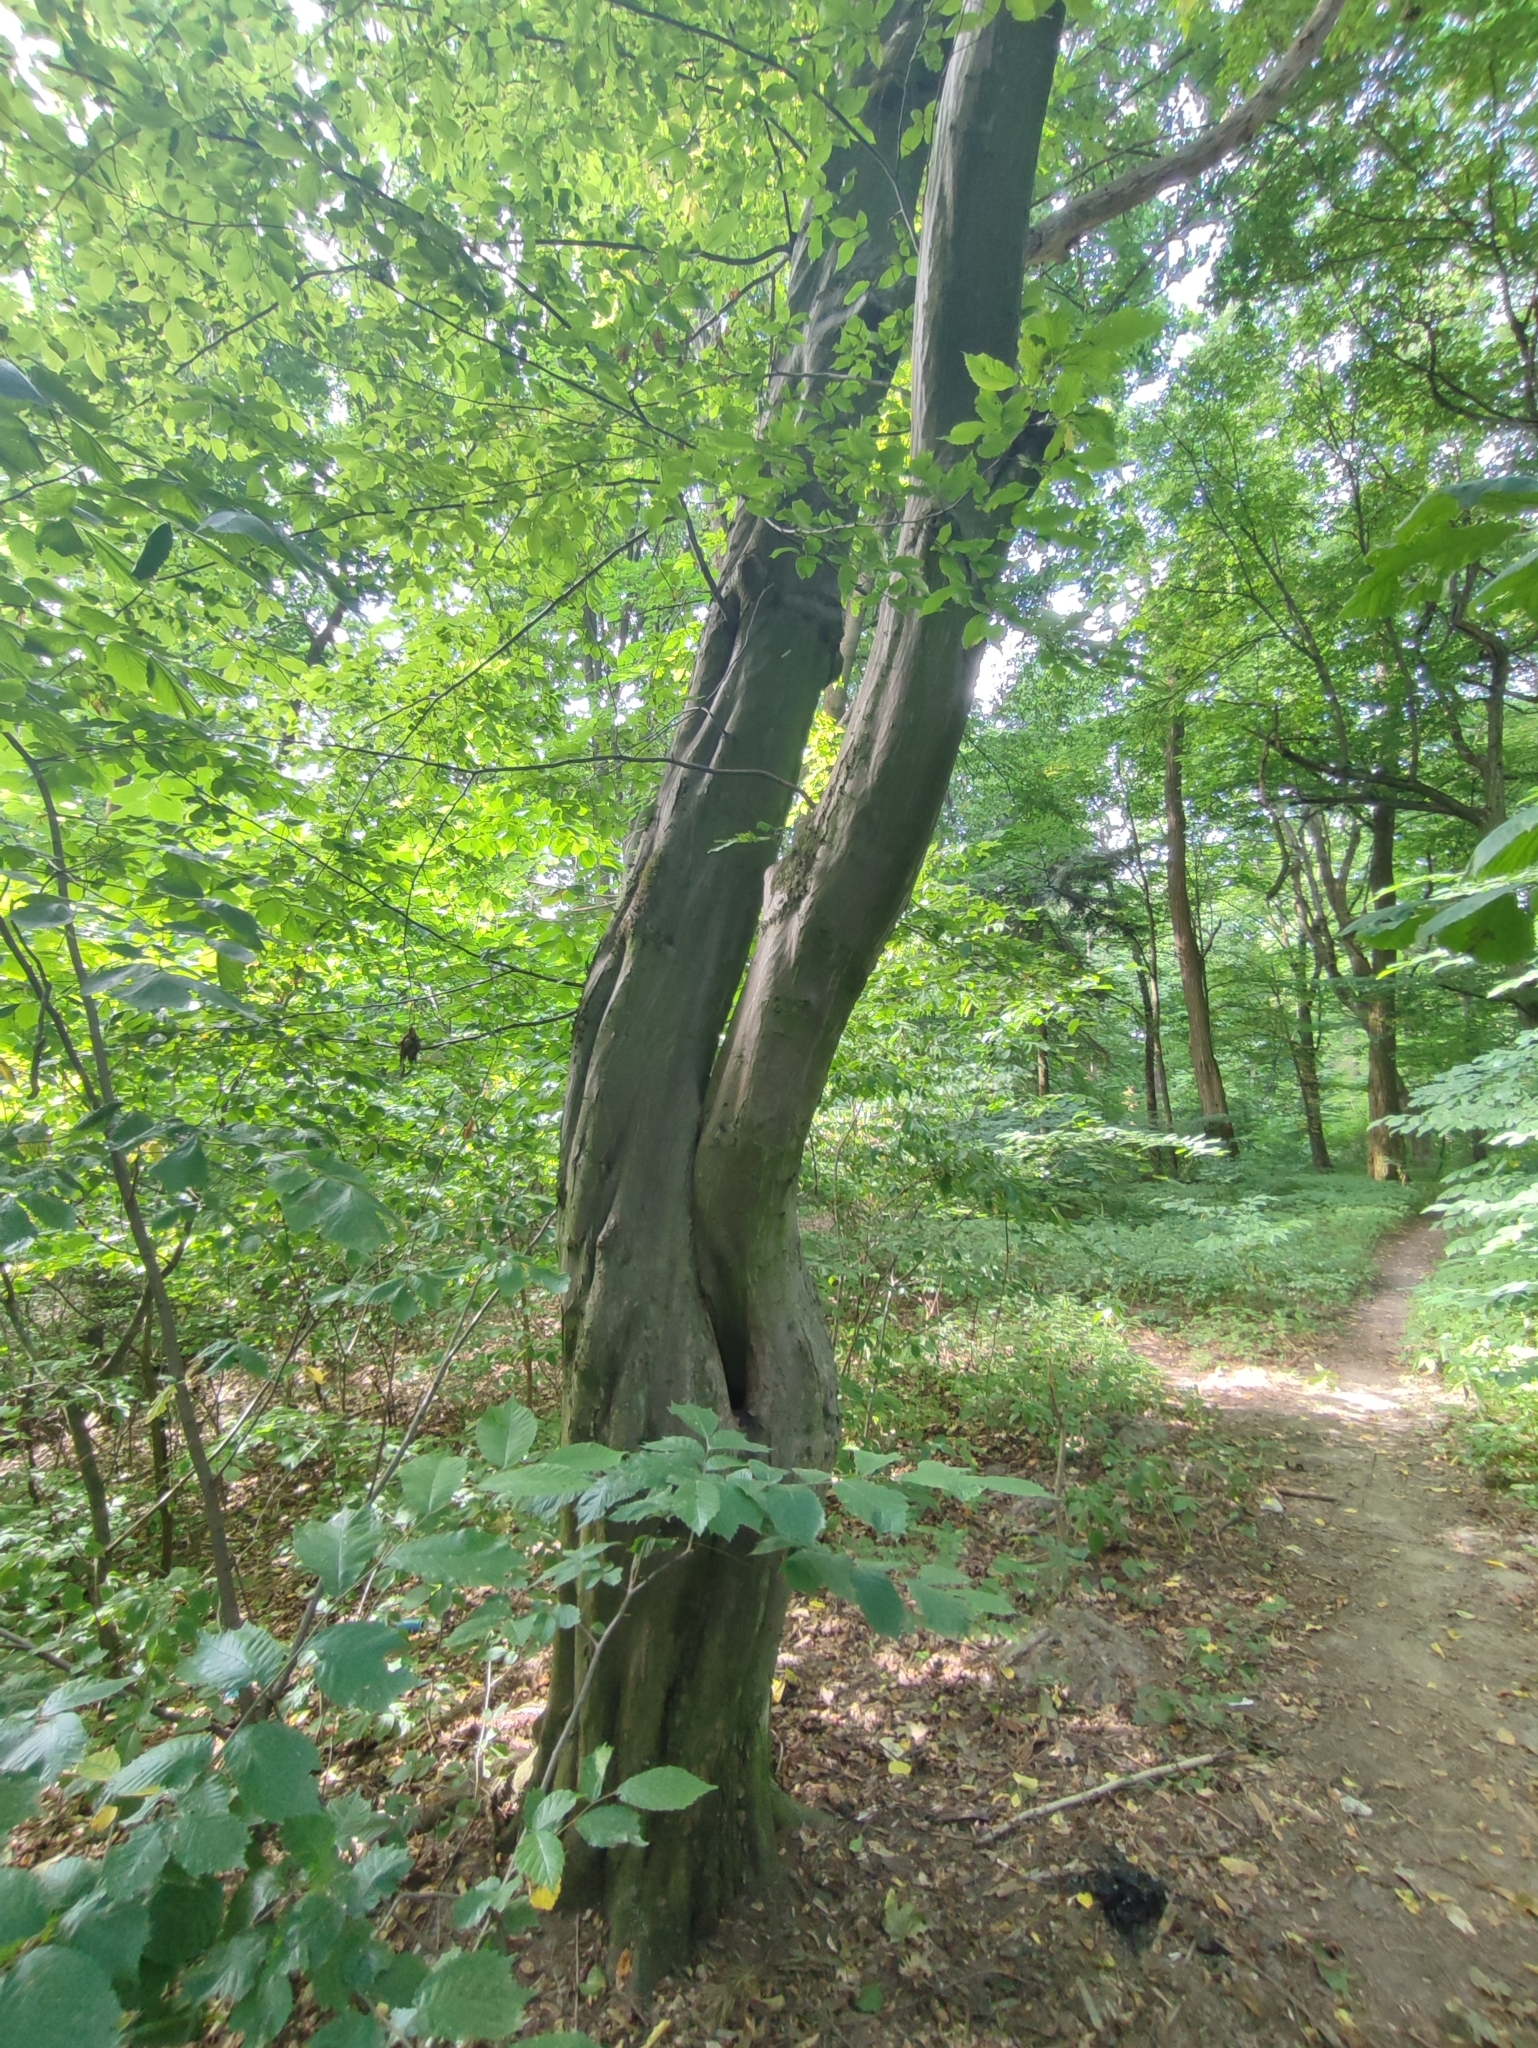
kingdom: Plantae
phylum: Tracheophyta
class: Magnoliopsida
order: Fagales
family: Betulaceae
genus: Carpinus
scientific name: Carpinus betulus
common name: Hornbeam
